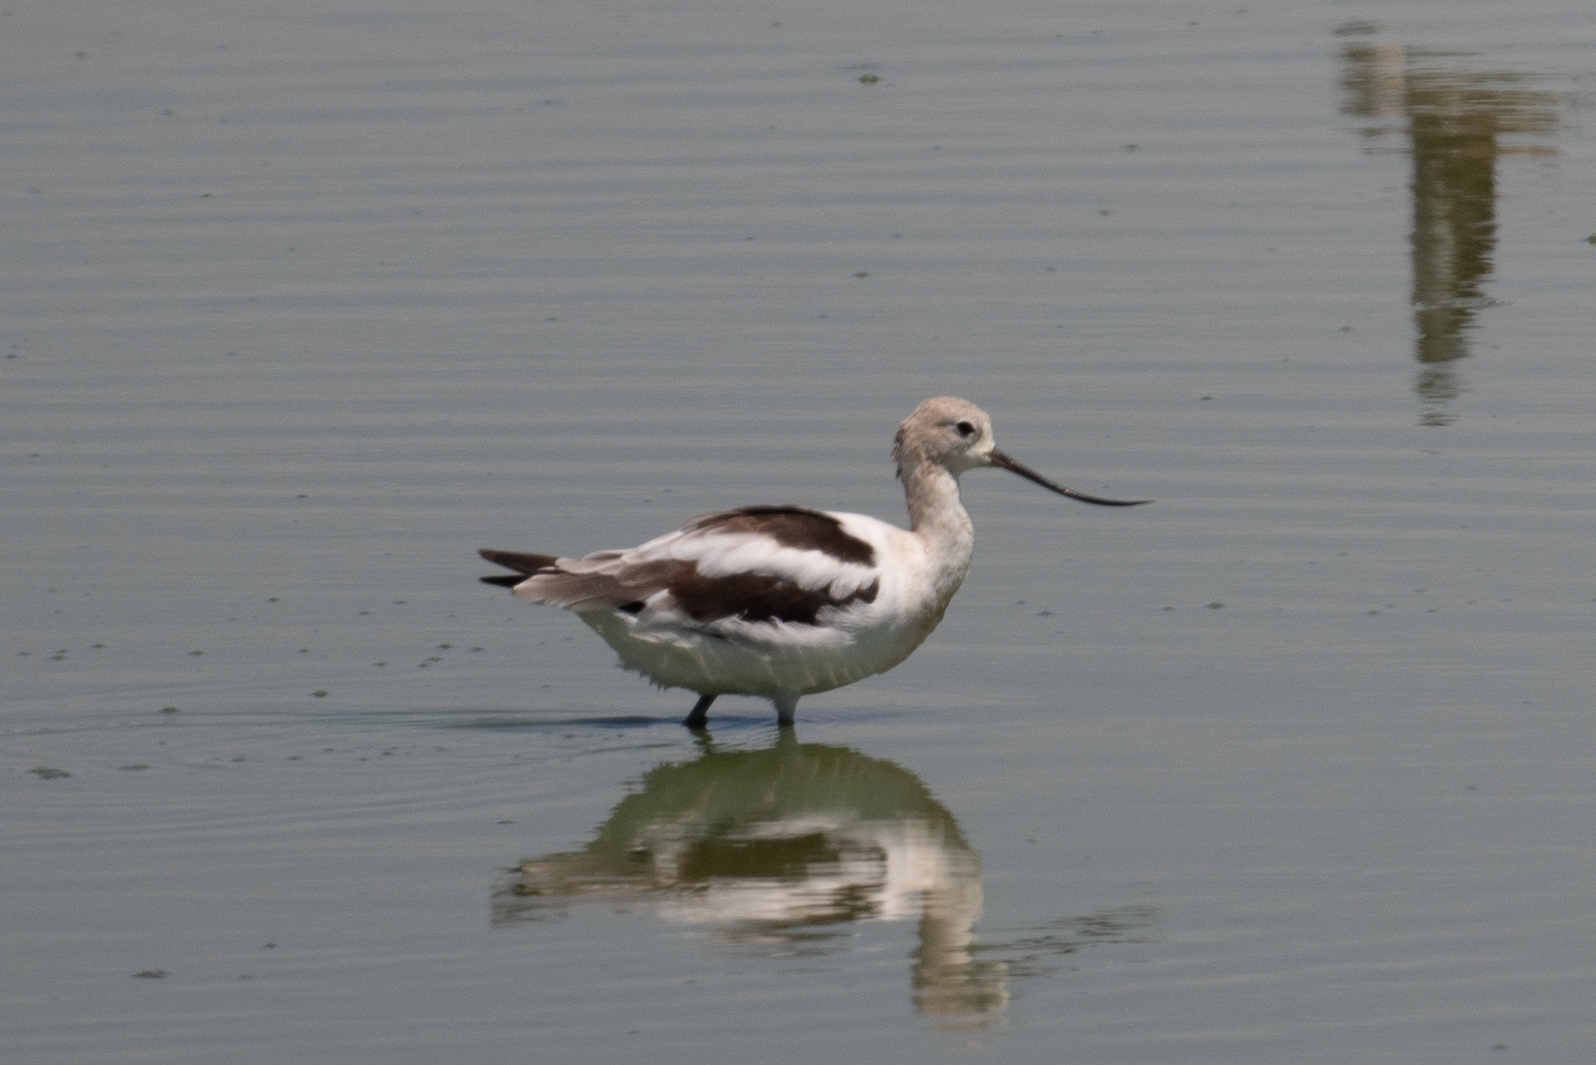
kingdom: Animalia
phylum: Chordata
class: Aves
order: Charadriiformes
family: Recurvirostridae
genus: Recurvirostra
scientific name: Recurvirostra americana
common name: American avocet
